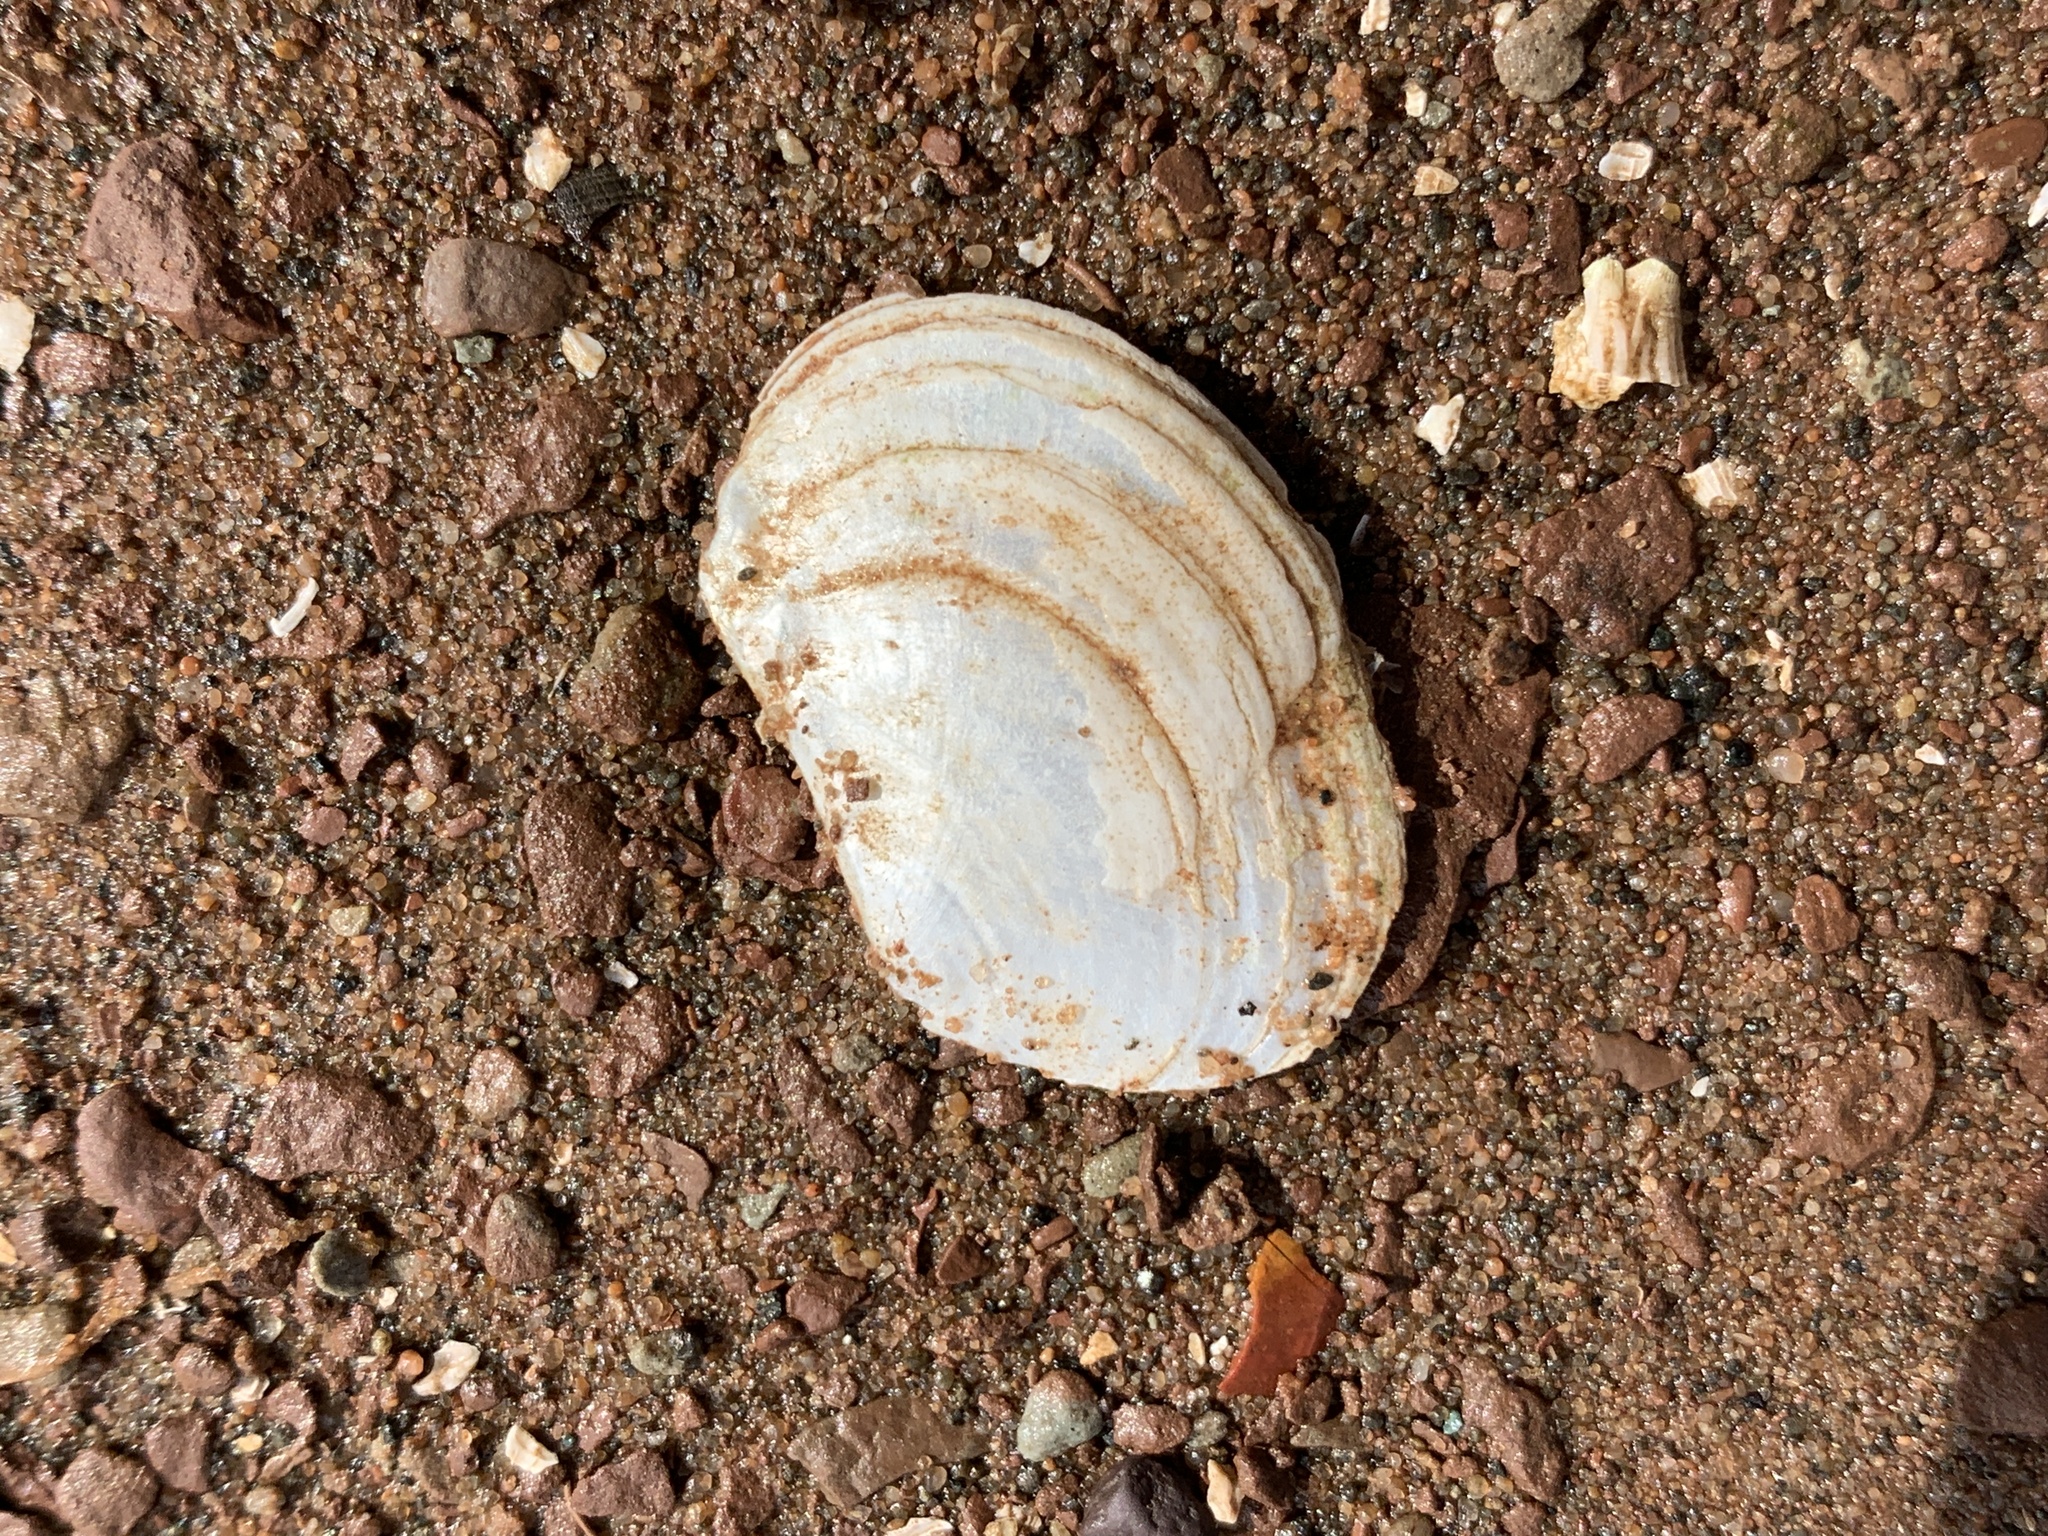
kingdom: Animalia
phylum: Mollusca
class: Bivalvia
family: Pandoridae
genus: Pandora
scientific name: Pandora gouldiana
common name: Rounded pandora
